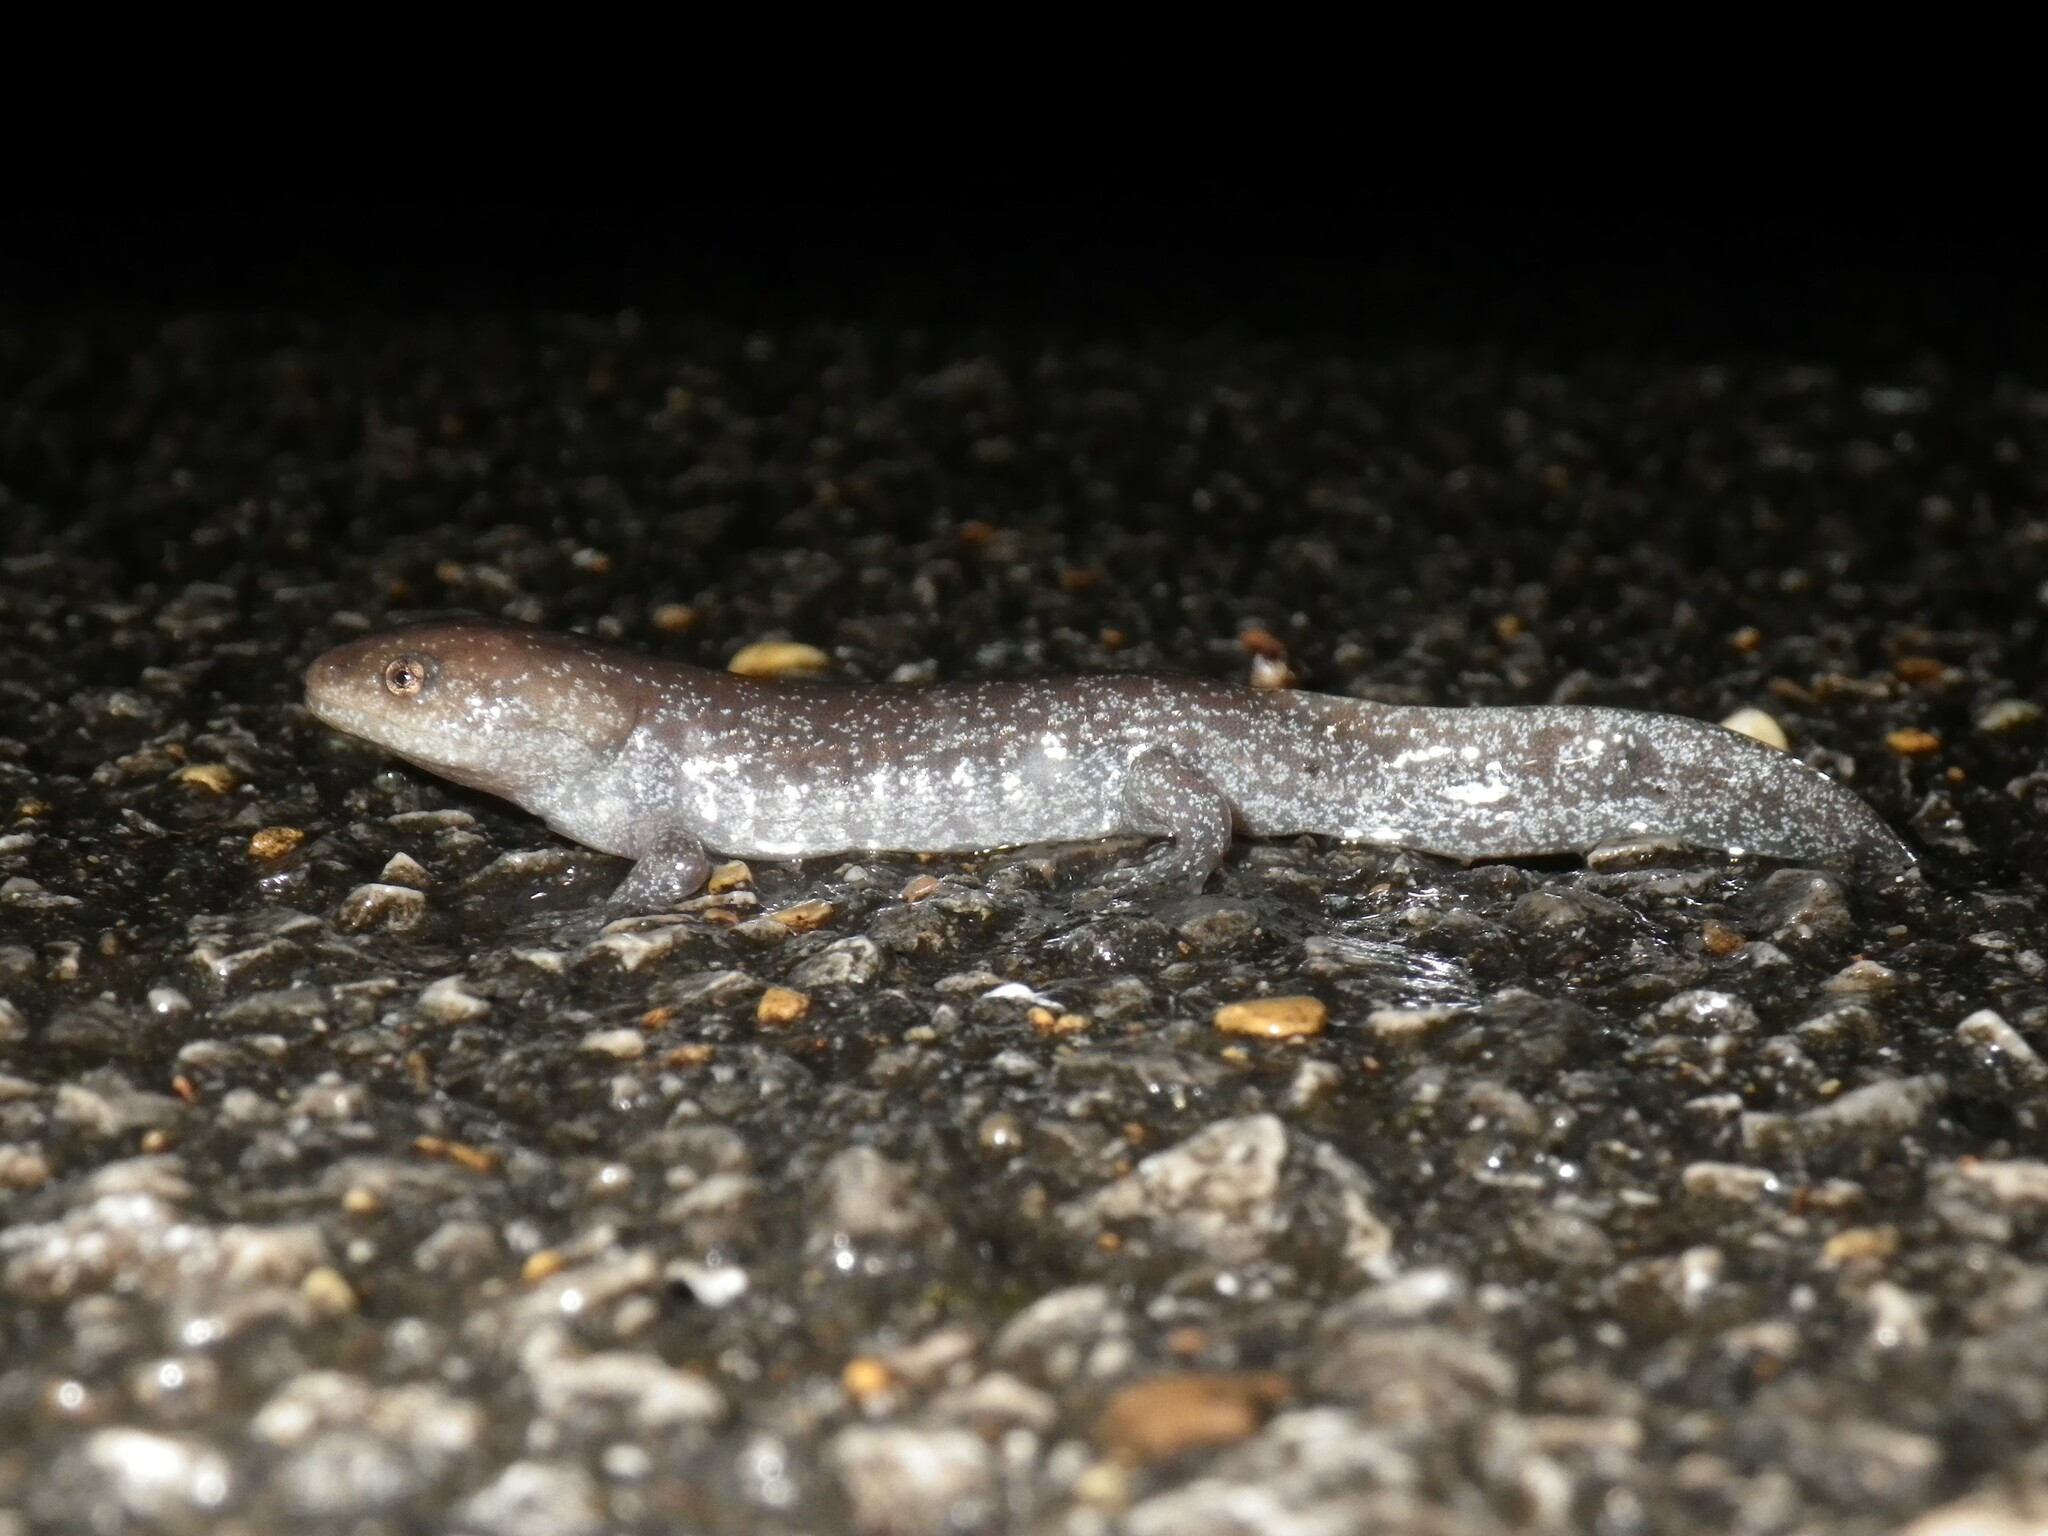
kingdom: Animalia
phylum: Chordata
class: Amphibia
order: Caudata
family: Ambystomatidae
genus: Ambystoma
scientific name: Ambystoma talpoideum
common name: Mole salamander
